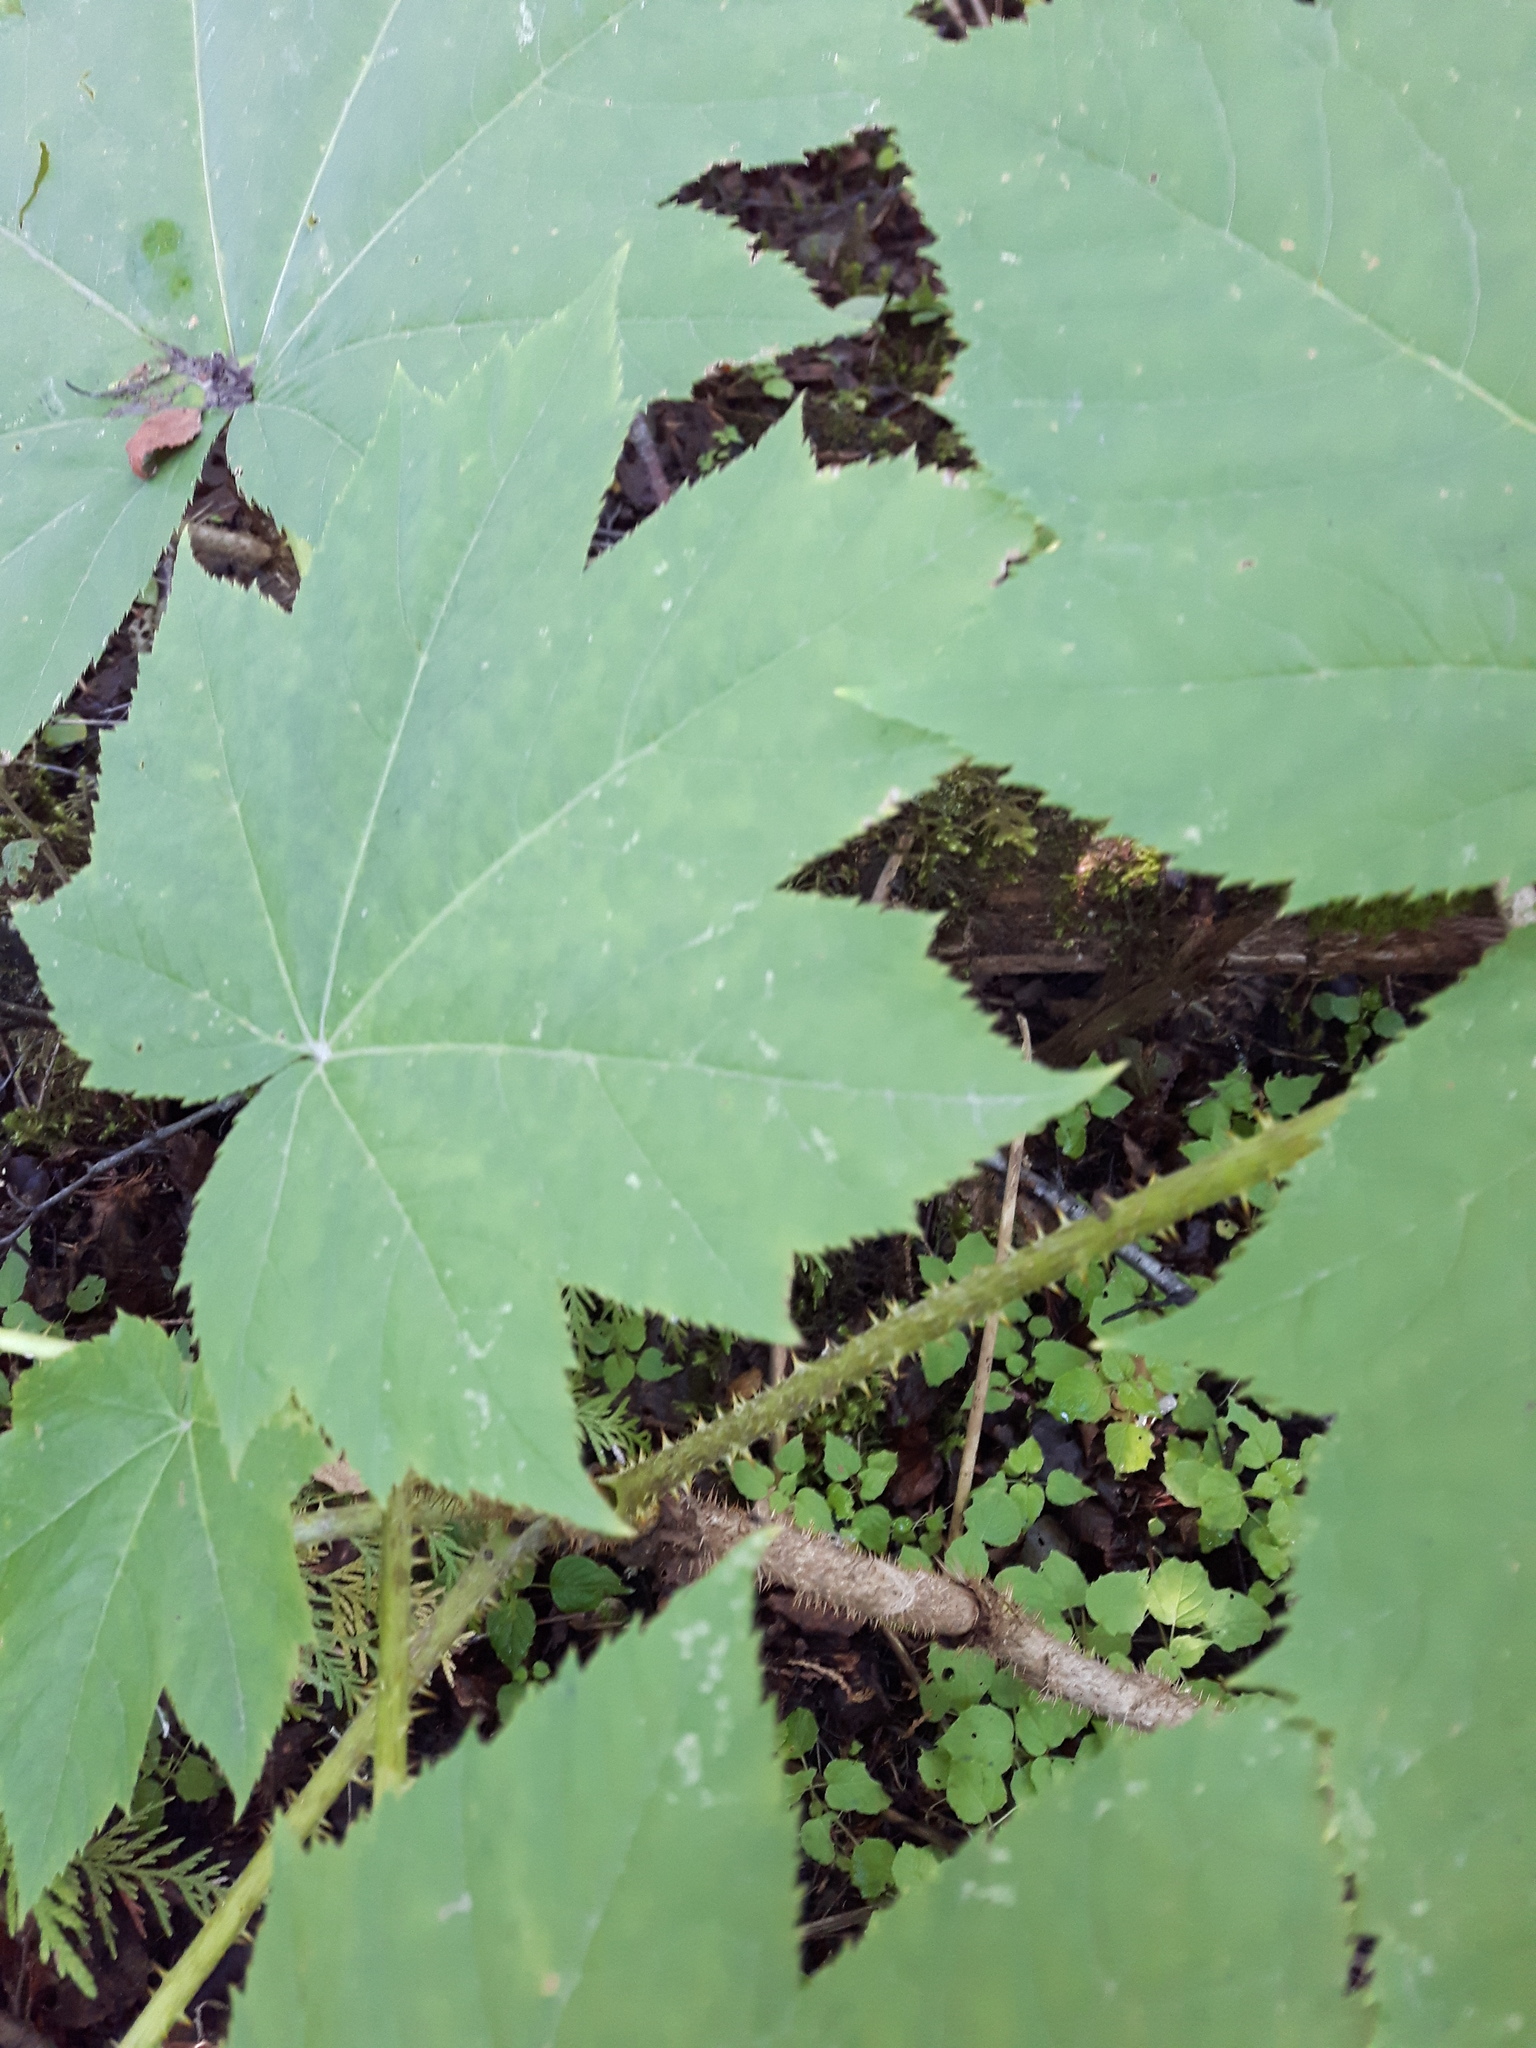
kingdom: Plantae
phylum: Tracheophyta
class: Magnoliopsida
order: Apiales
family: Araliaceae
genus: Oplopanax
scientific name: Oplopanax horridus
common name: Devil's walking-stick
